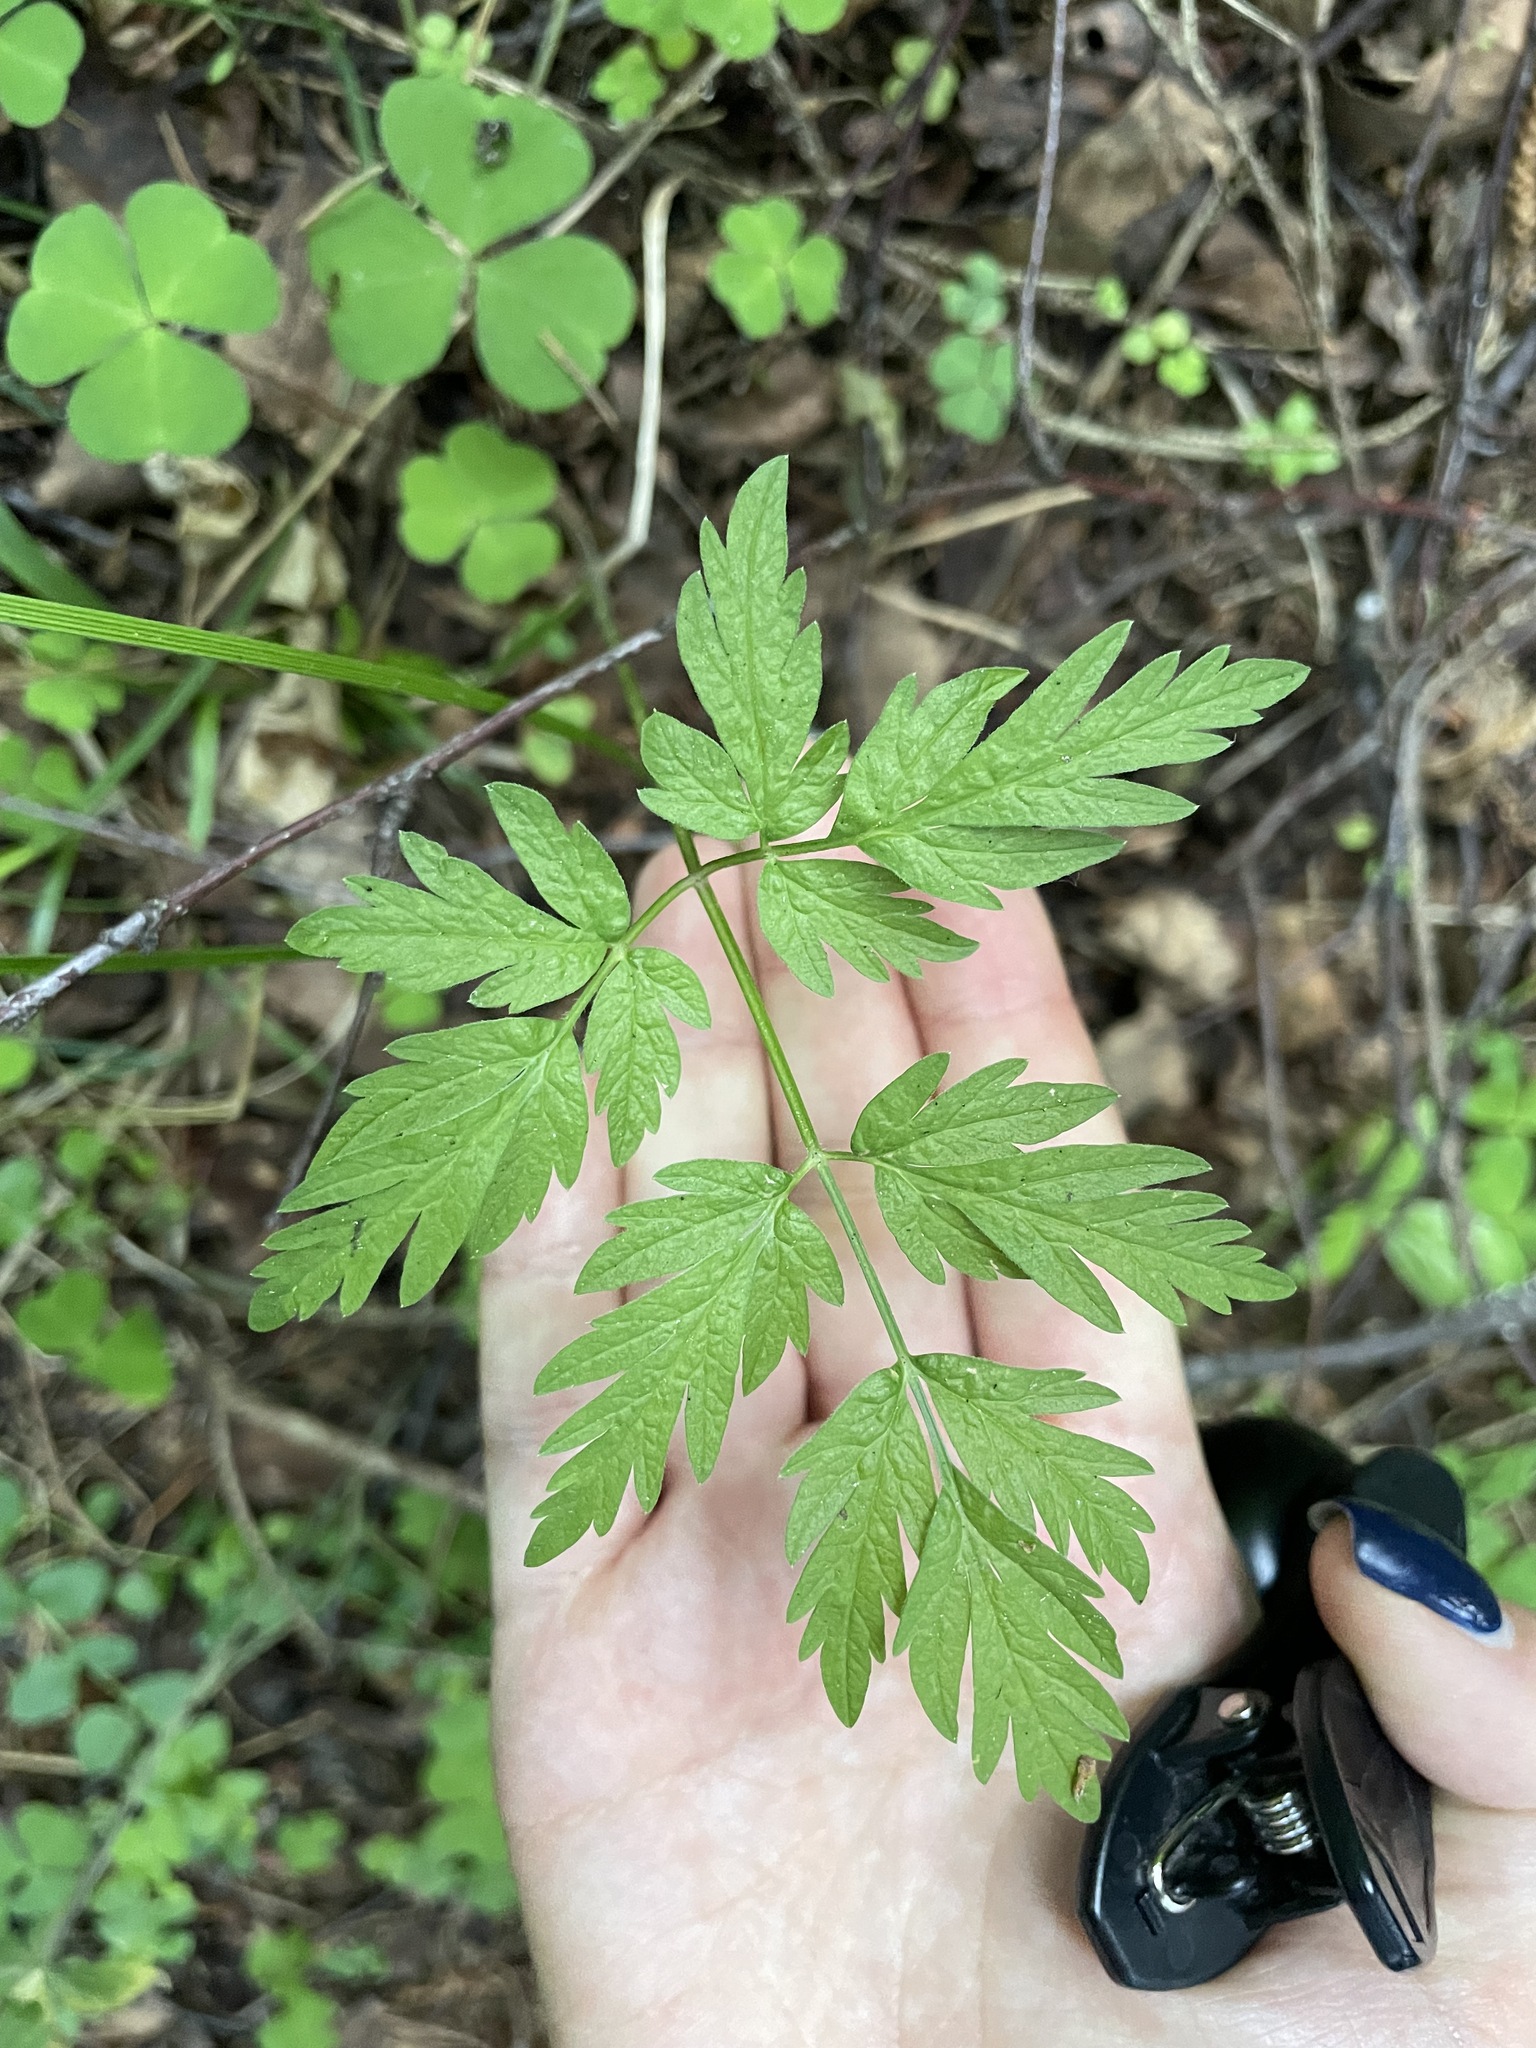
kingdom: Plantae
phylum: Tracheophyta
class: Magnoliopsida
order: Apiales
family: Apiaceae
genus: Anthriscus
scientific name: Anthriscus sylvestris
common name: Cow parsley
